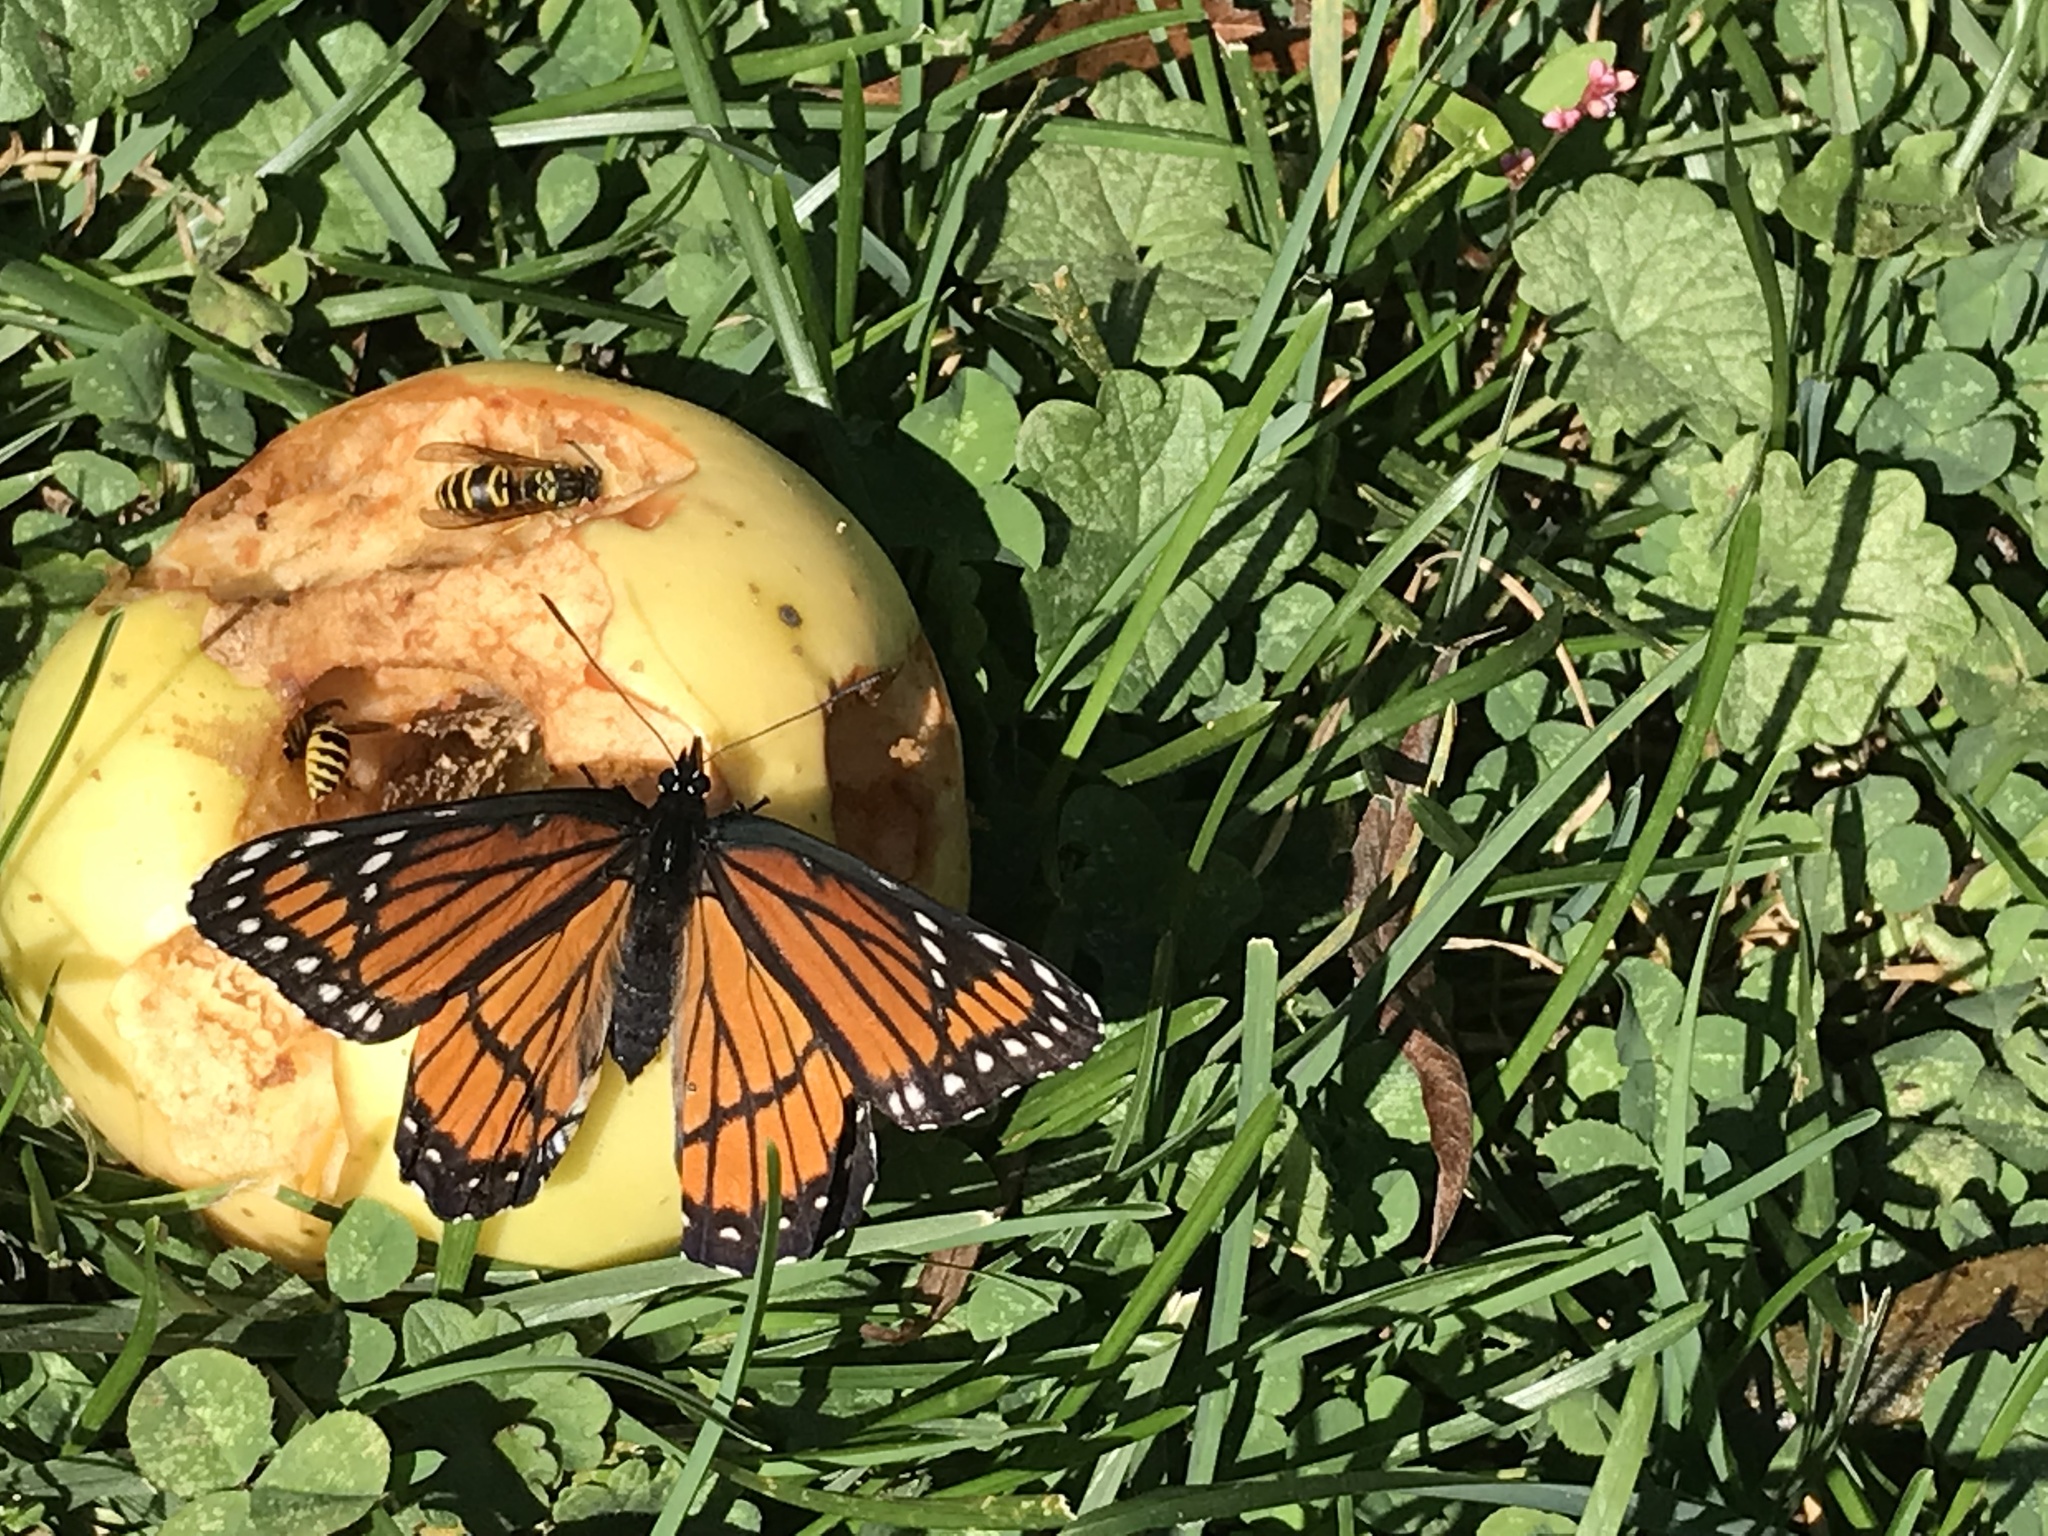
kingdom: Animalia
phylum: Arthropoda
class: Insecta
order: Lepidoptera
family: Nymphalidae
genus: Limenitis
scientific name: Limenitis archippus
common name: Viceroy
